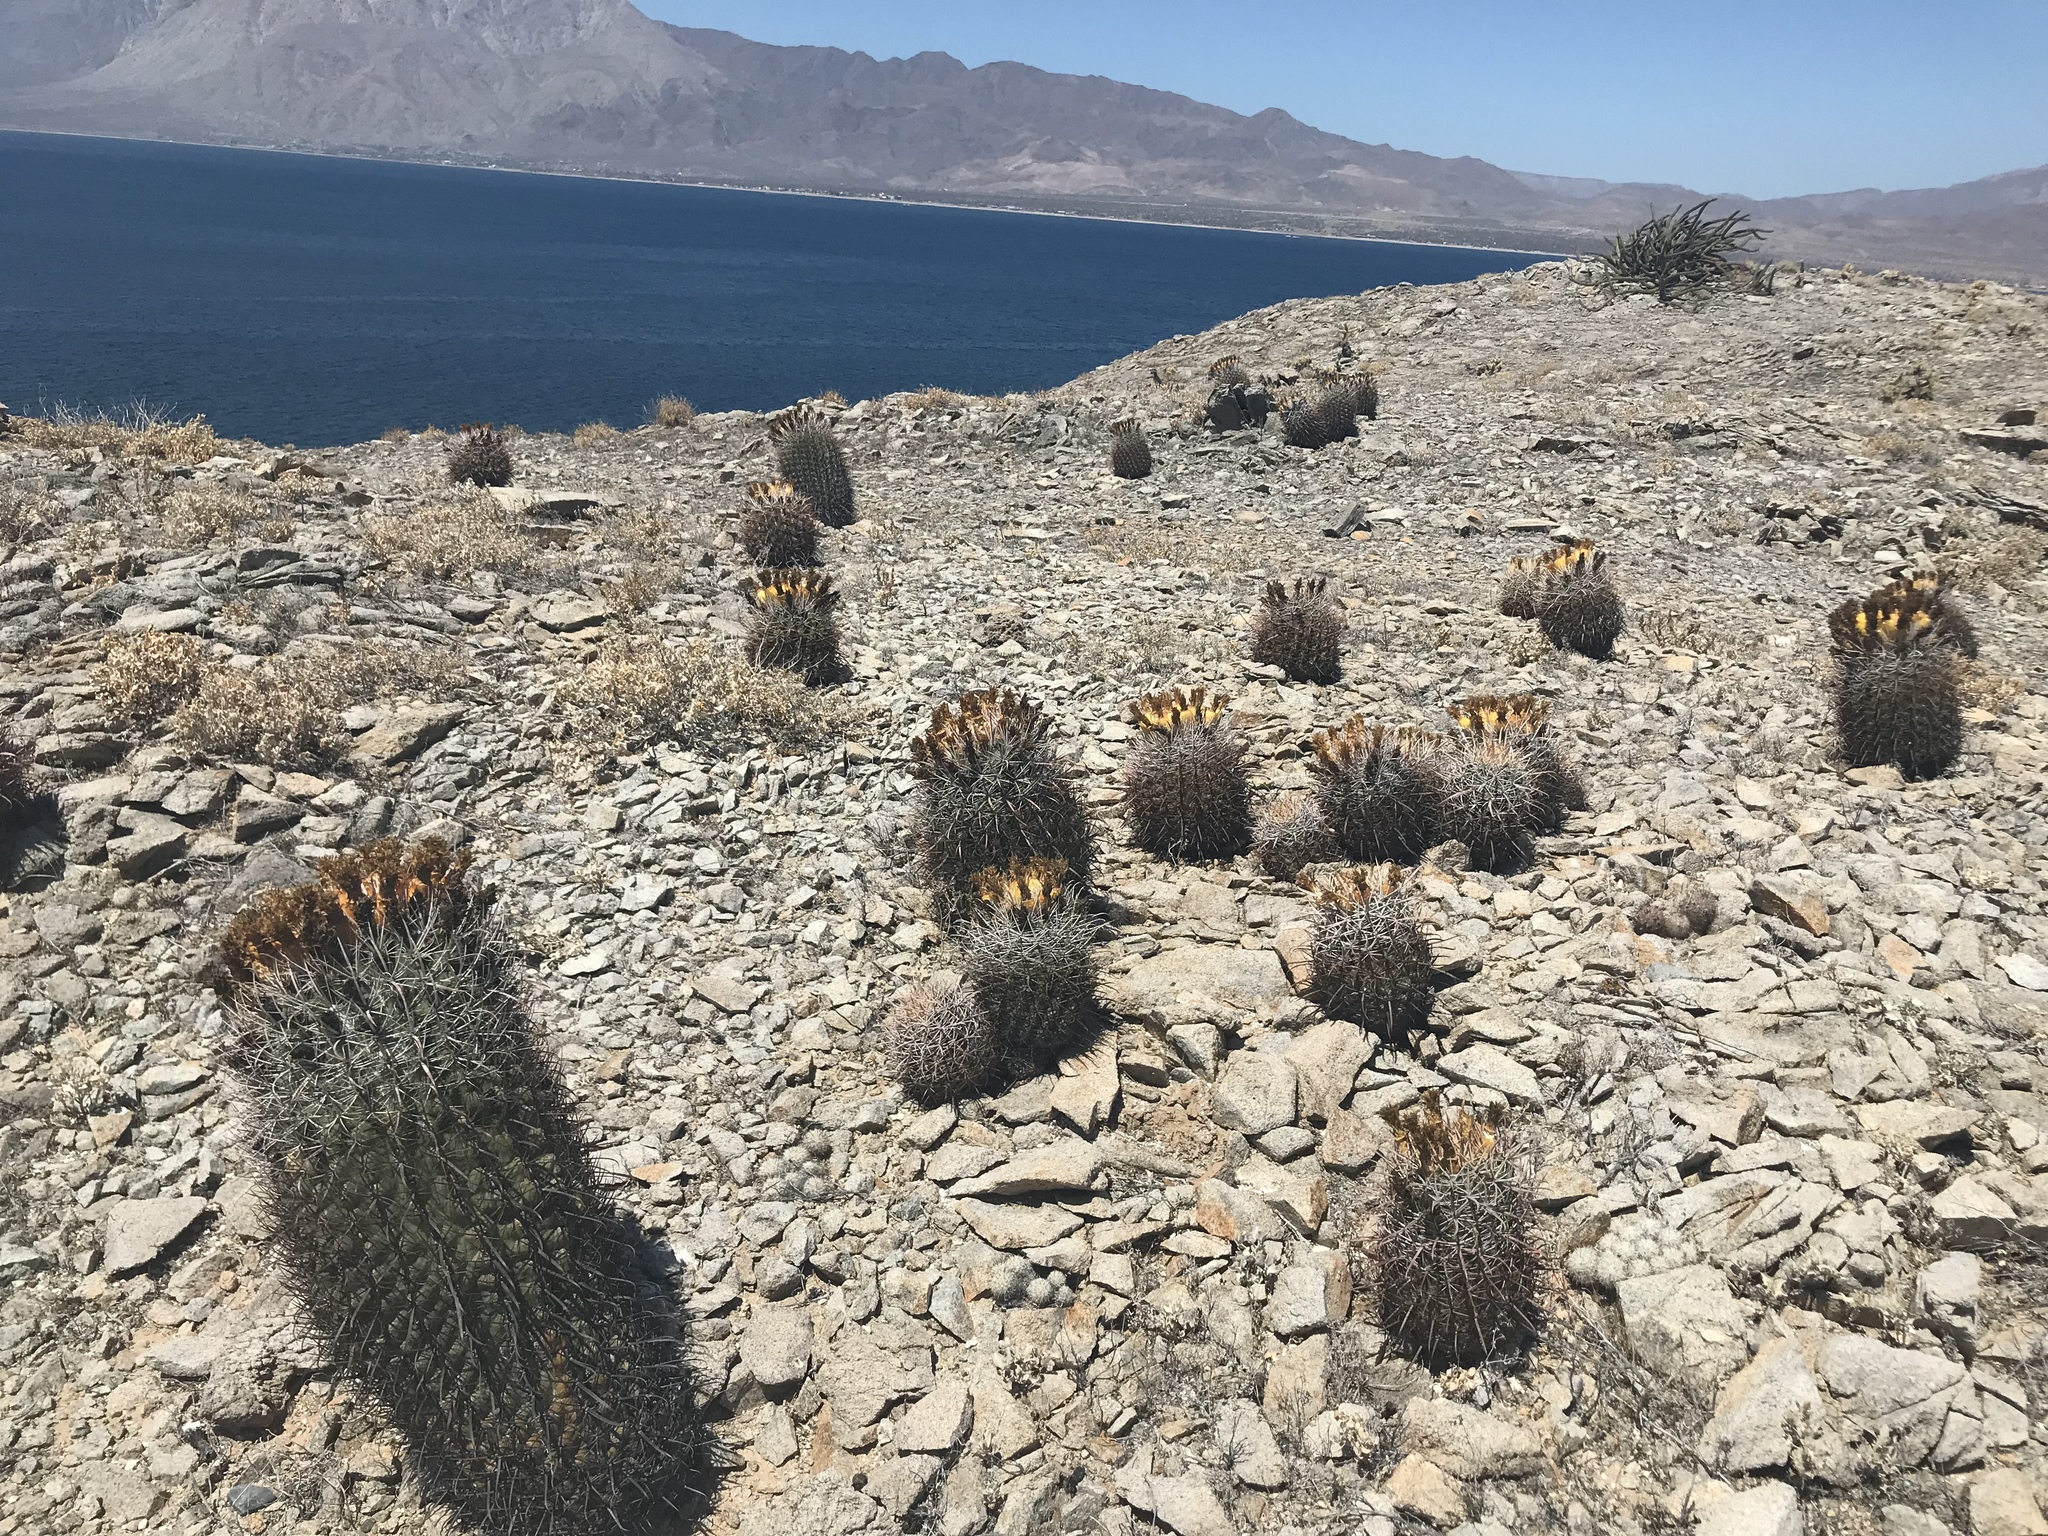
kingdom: Plantae
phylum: Tracheophyta
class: Magnoliopsida
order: Caryophyllales
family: Cactaceae
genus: Ferocactus
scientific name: Ferocactus gracilis
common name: Fire barrel cactus
